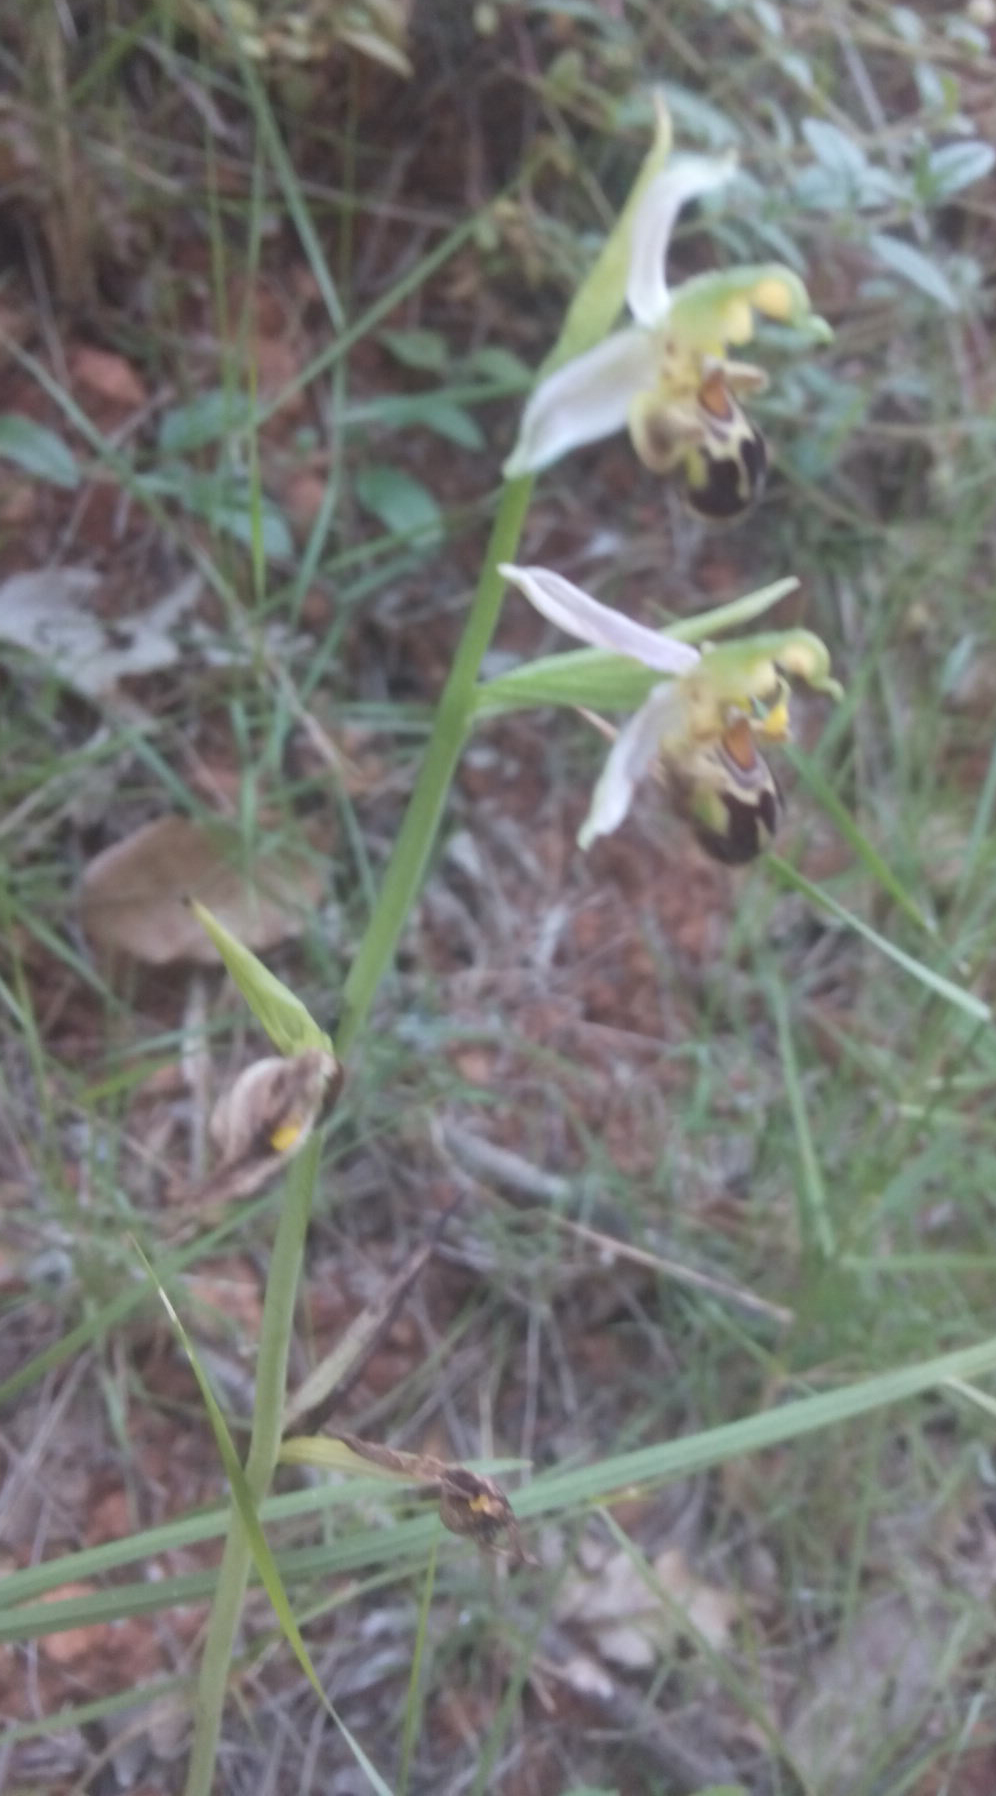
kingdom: Plantae
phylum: Tracheophyta
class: Liliopsida
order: Asparagales
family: Orchidaceae
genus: Ophrys
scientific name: Ophrys apifera
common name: Bee orchid
